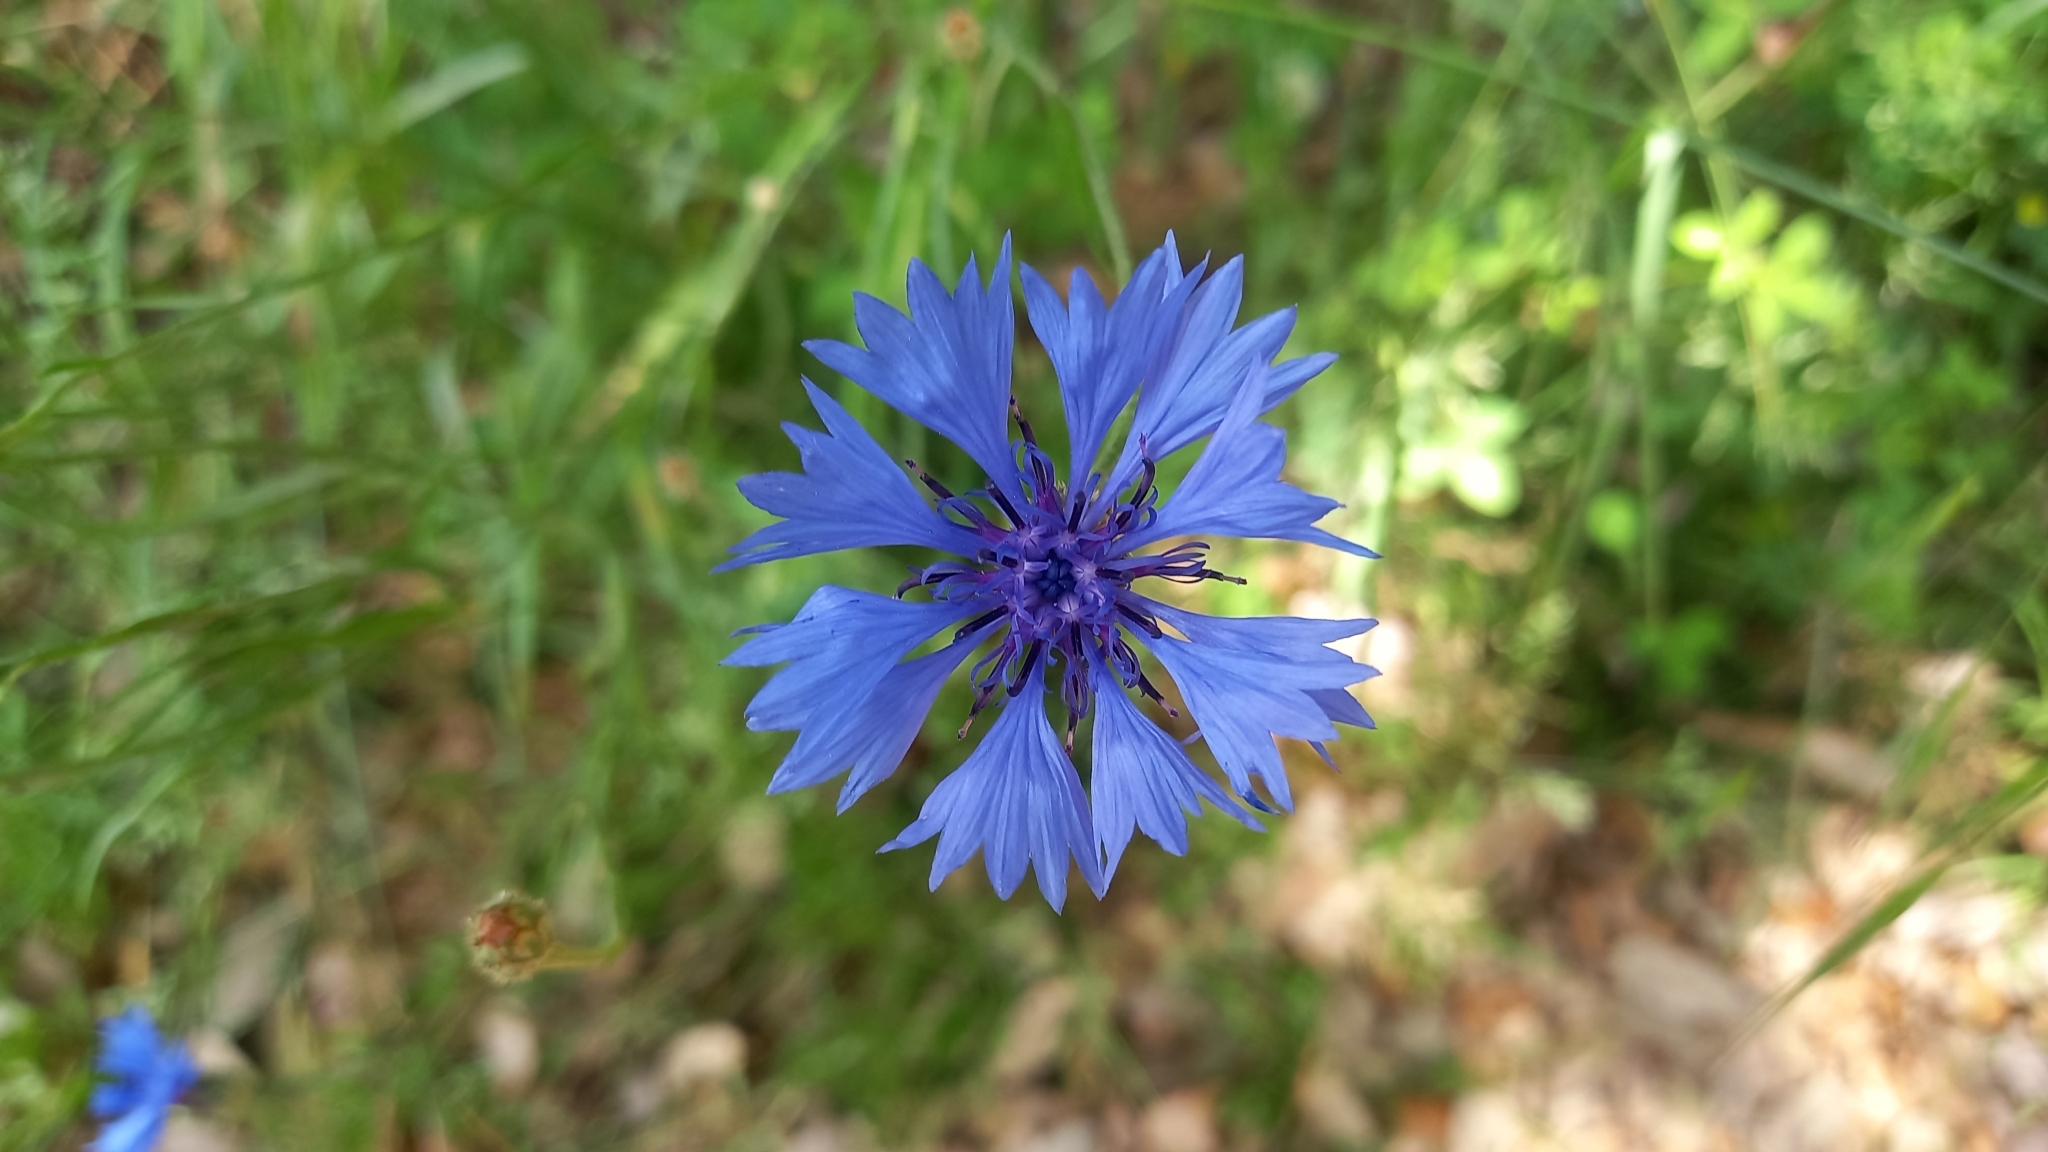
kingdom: Plantae
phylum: Tracheophyta
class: Magnoliopsida
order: Asterales
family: Asteraceae
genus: Centaurea
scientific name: Centaurea cyanus
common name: Cornflower
